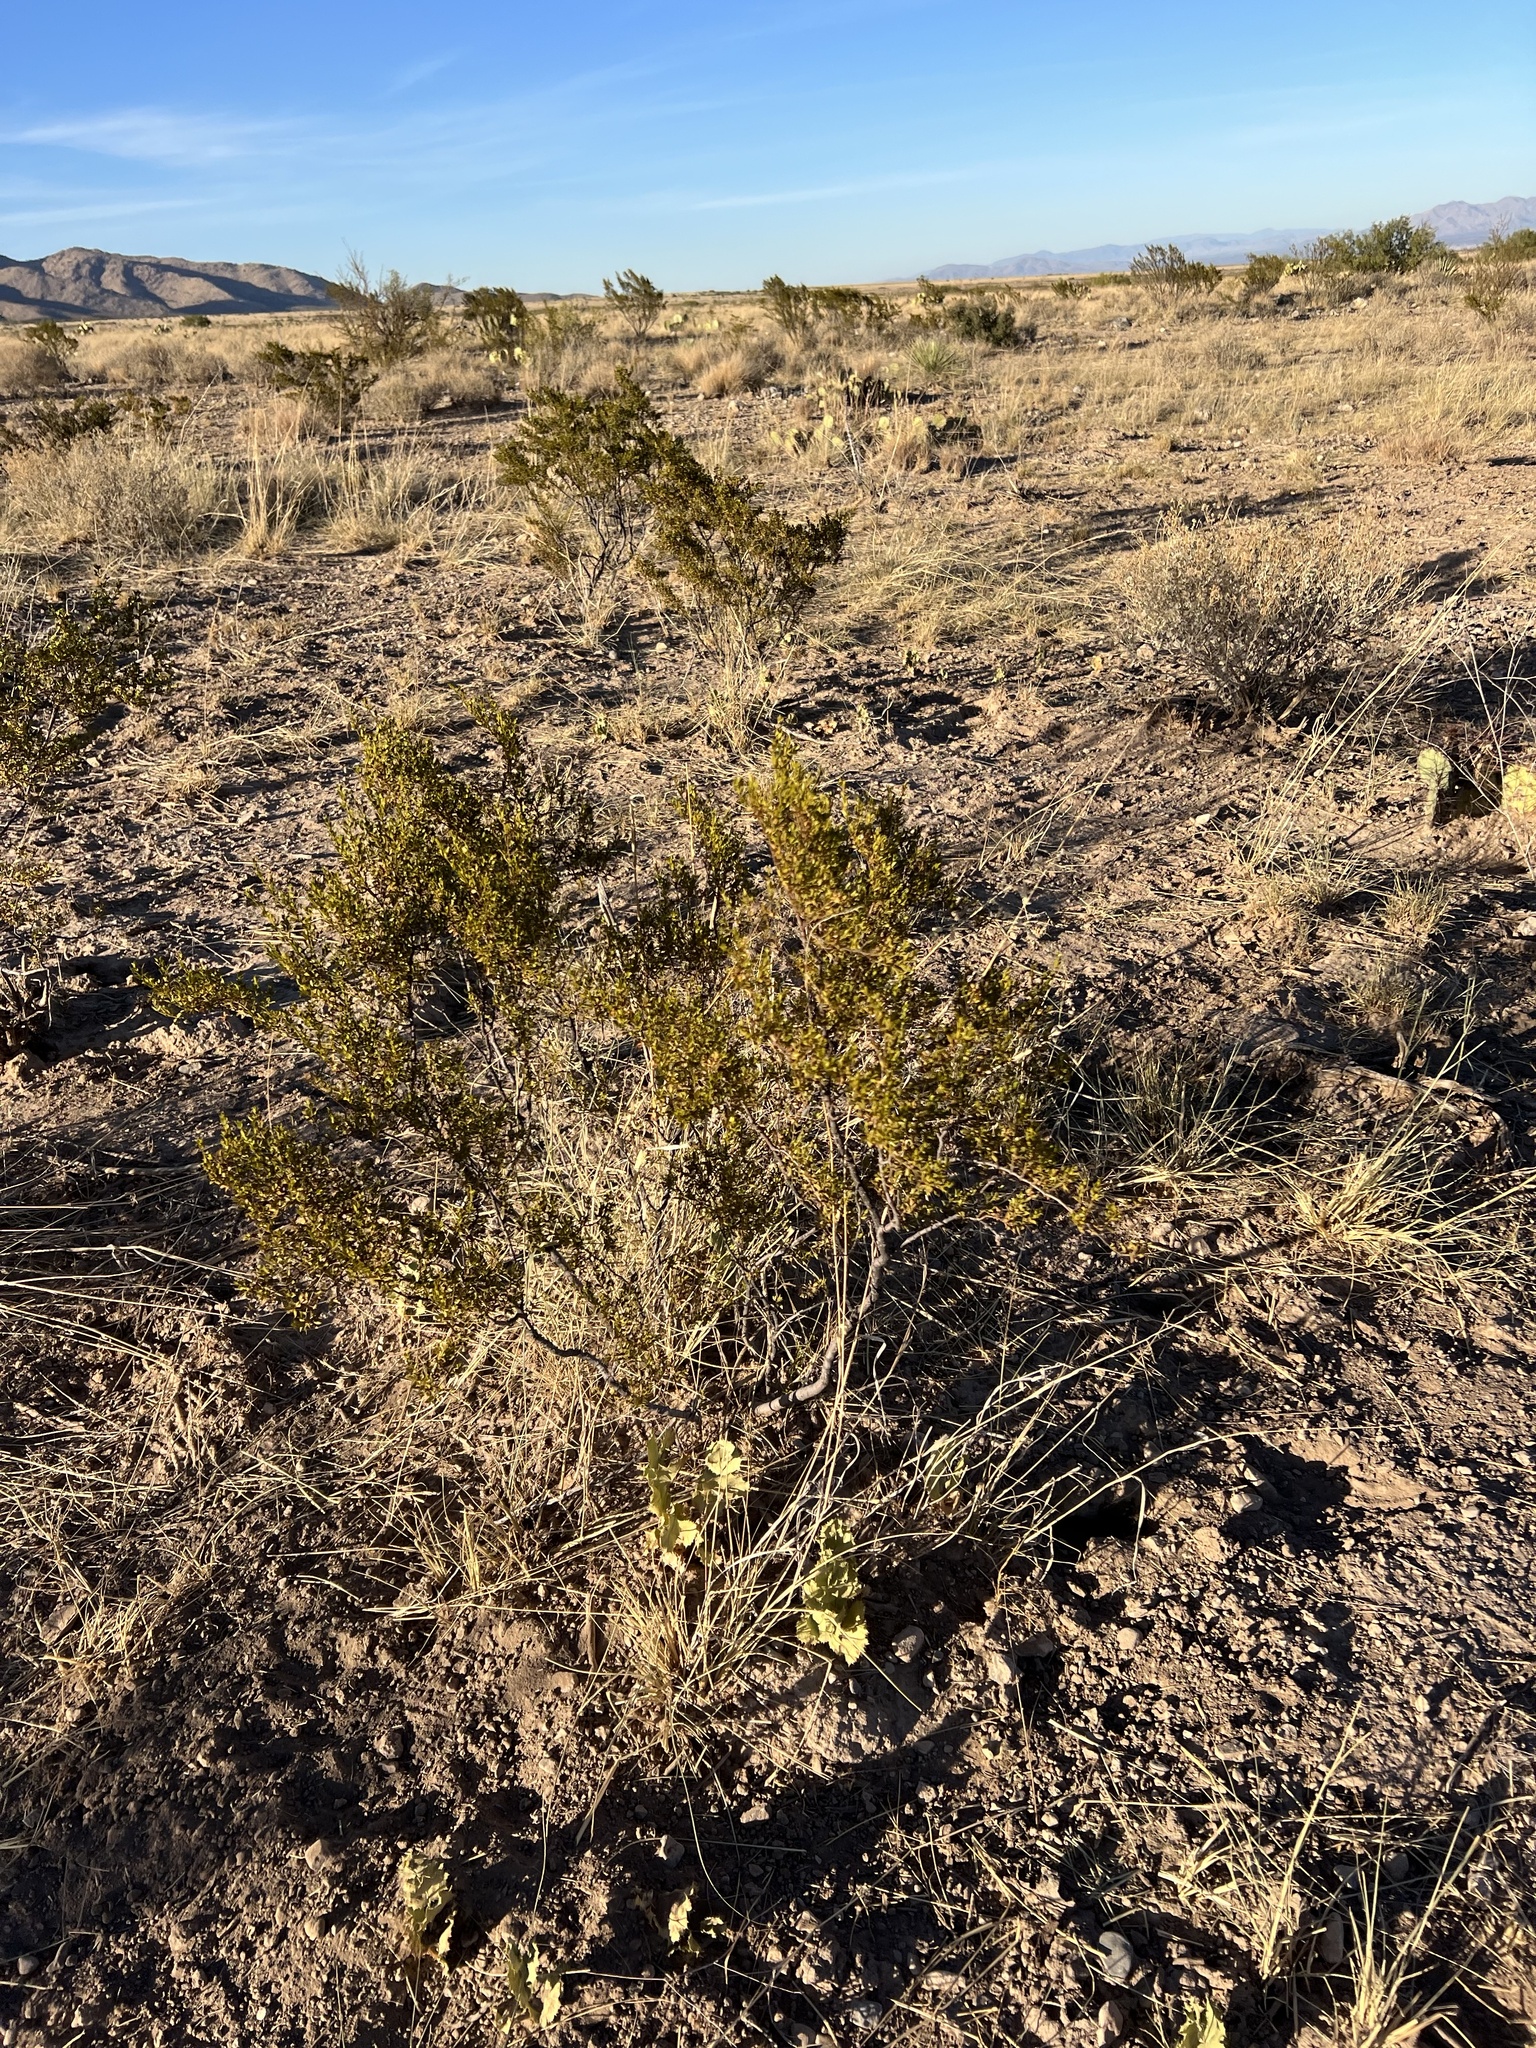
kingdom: Plantae
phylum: Tracheophyta
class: Magnoliopsida
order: Zygophyllales
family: Zygophyllaceae
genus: Larrea
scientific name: Larrea tridentata
